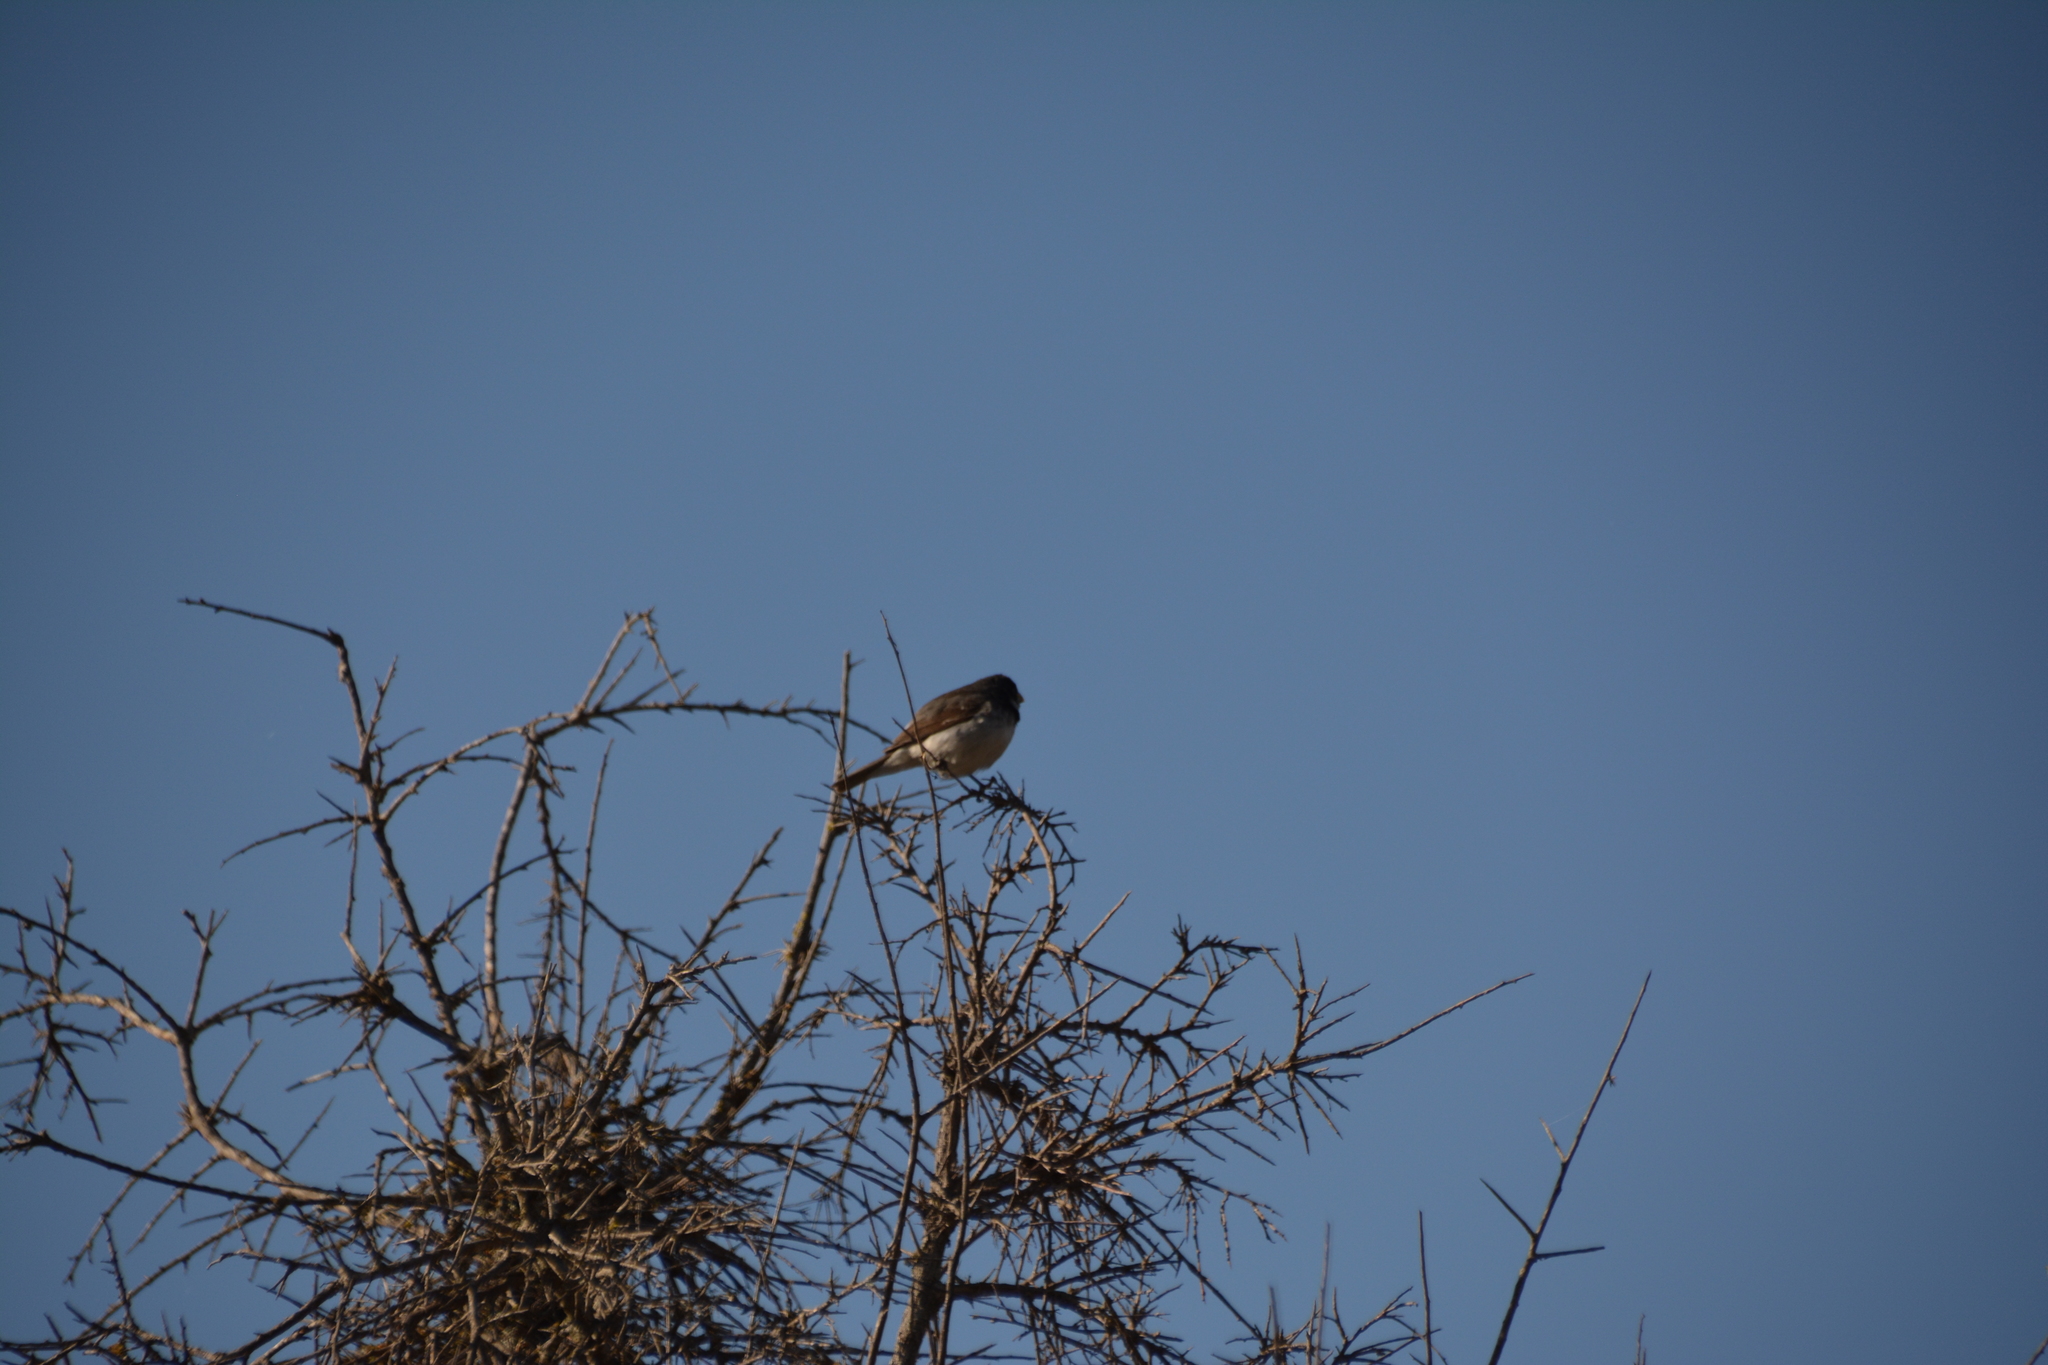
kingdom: Animalia
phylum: Chordata
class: Aves
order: Passeriformes
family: Thraupidae
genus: Sporophila
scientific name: Sporophila caerulescens
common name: Double-collared seedeater
